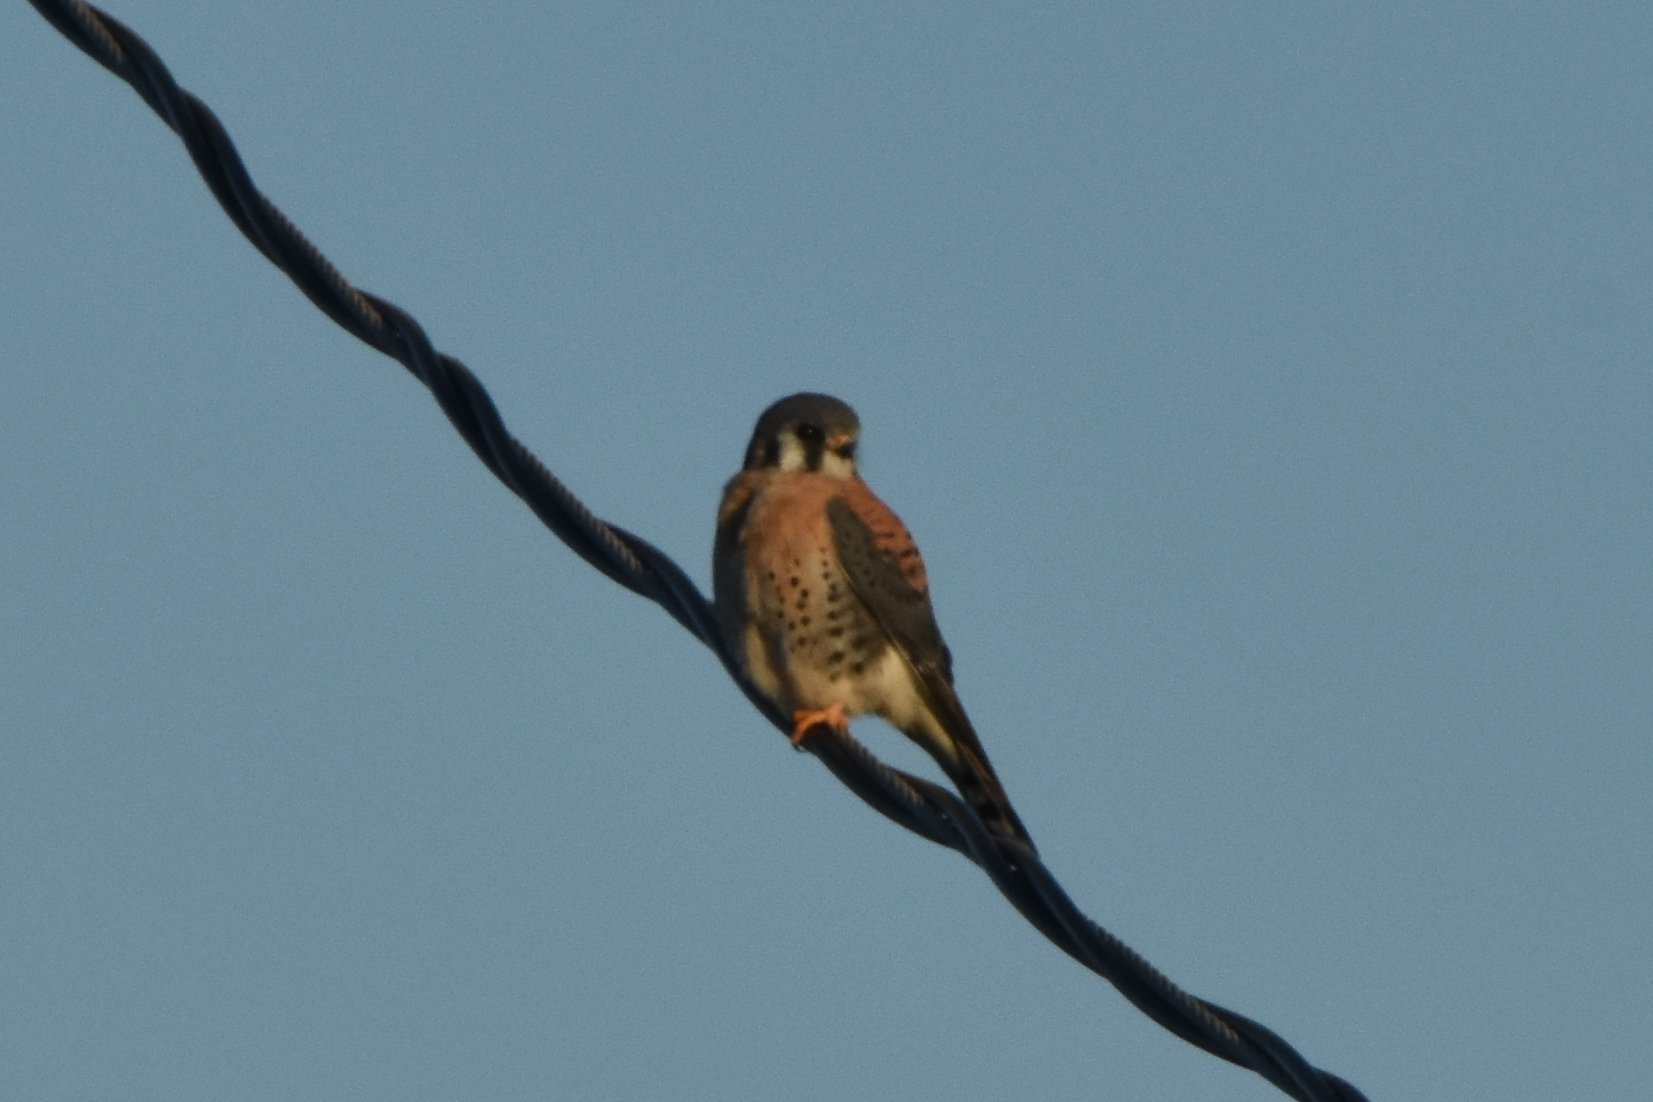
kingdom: Animalia
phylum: Chordata
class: Aves
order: Falconiformes
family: Falconidae
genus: Falco
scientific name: Falco sparverius
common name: American kestrel
